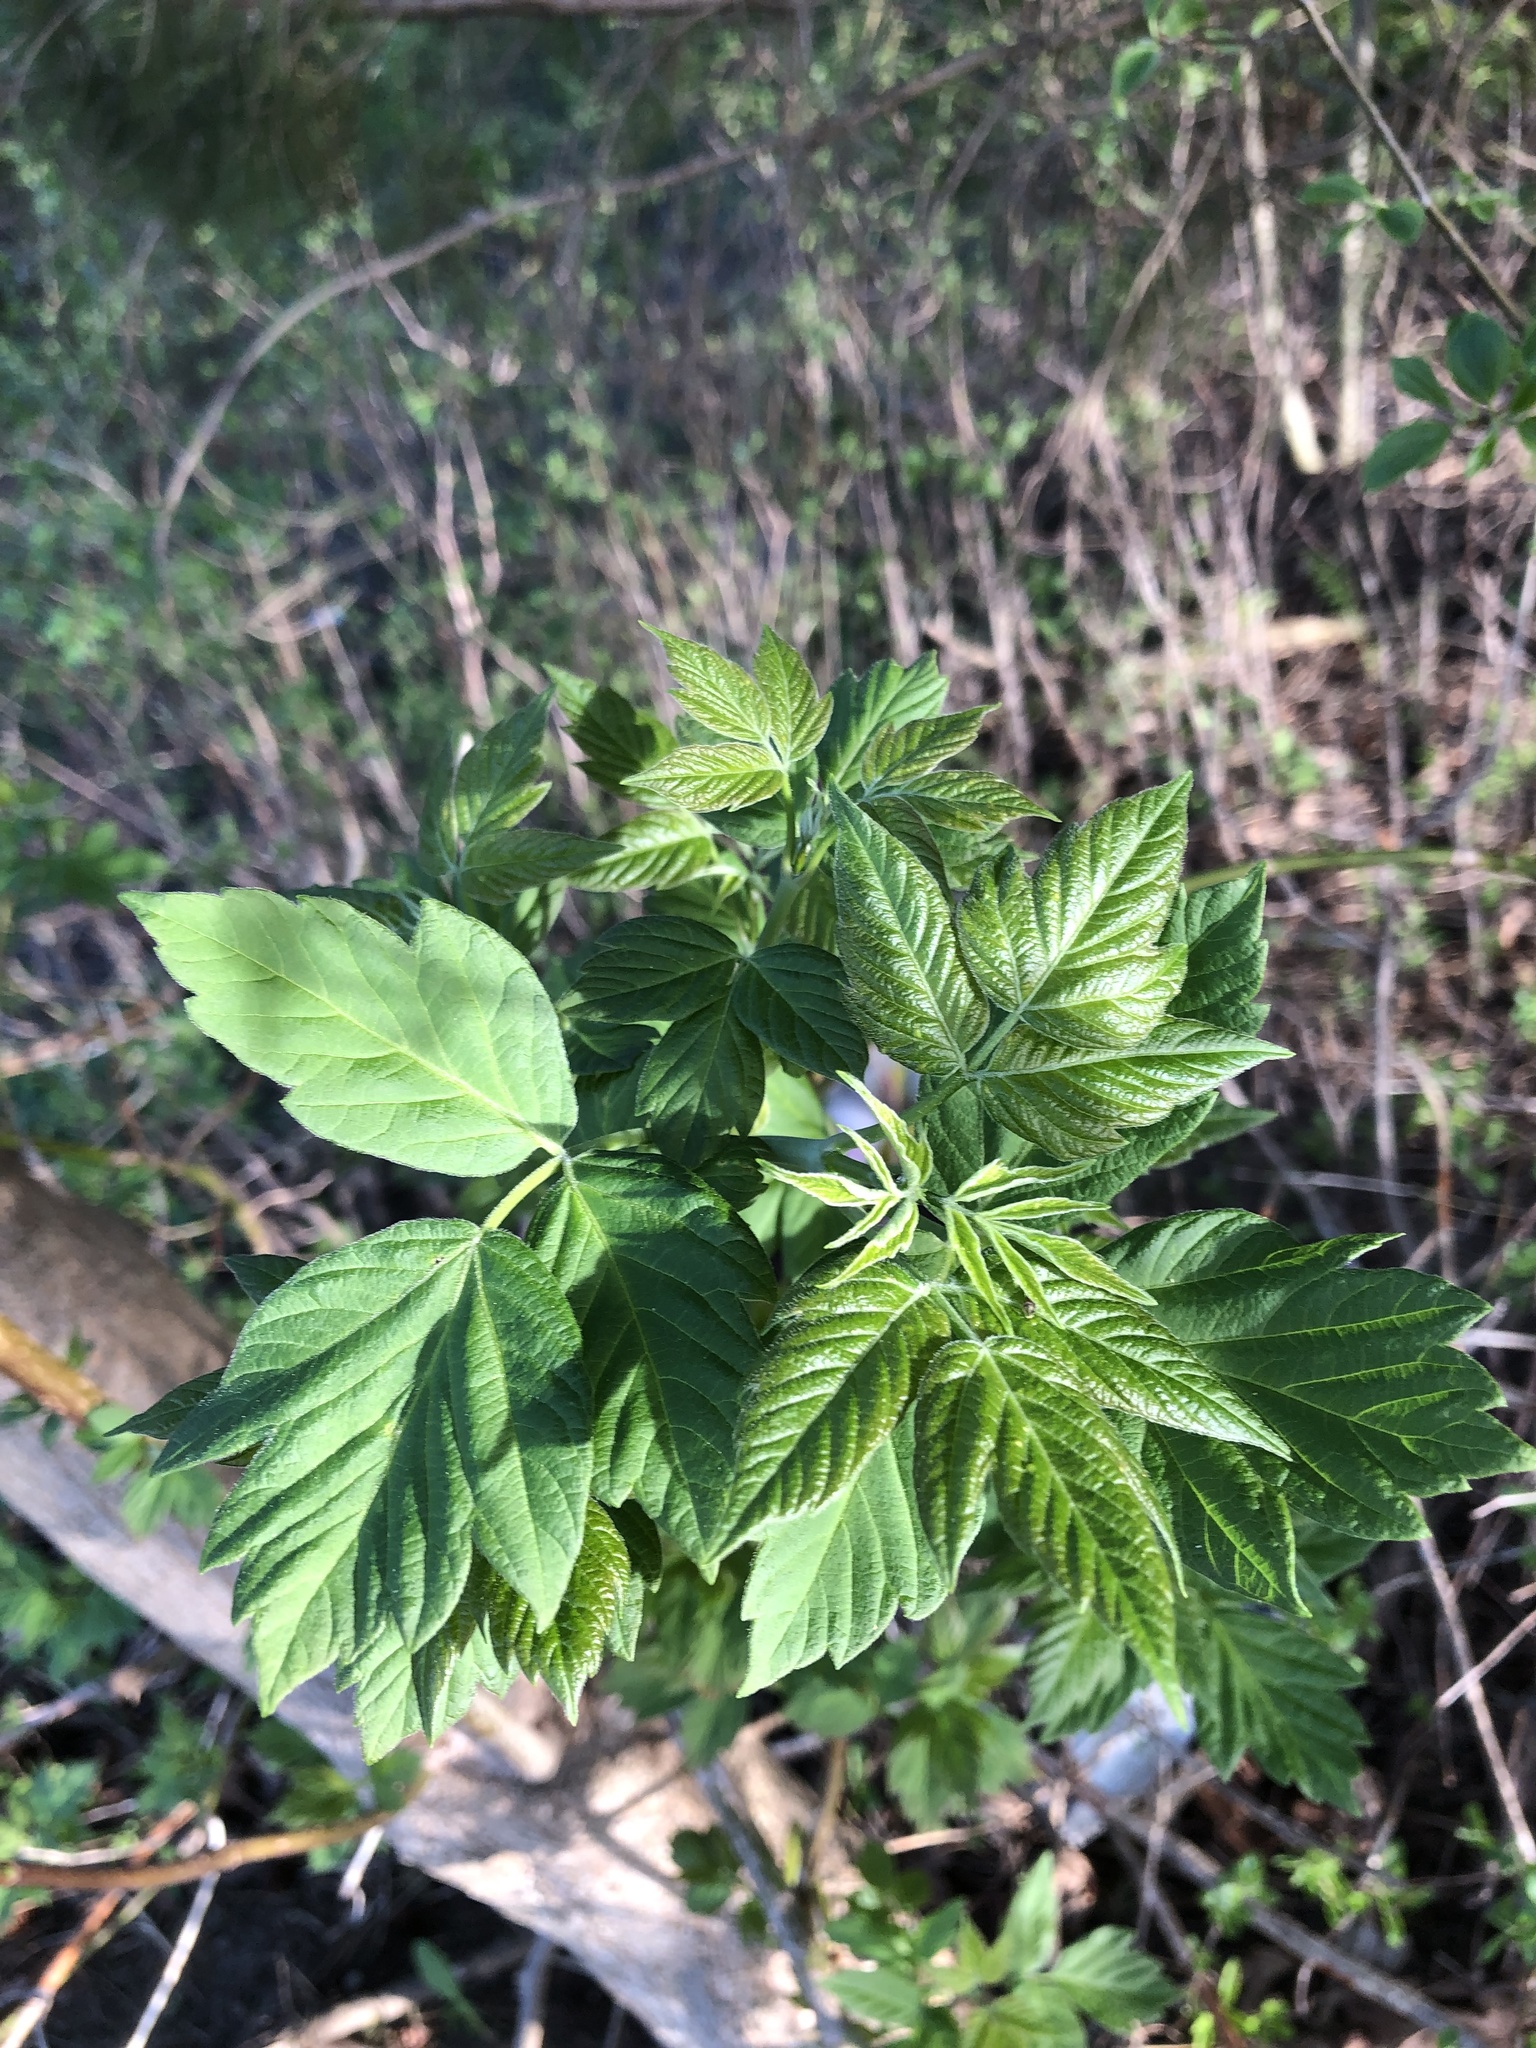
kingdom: Plantae
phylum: Tracheophyta
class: Magnoliopsida
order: Sapindales
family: Sapindaceae
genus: Acer
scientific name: Acer negundo
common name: Ashleaf maple
